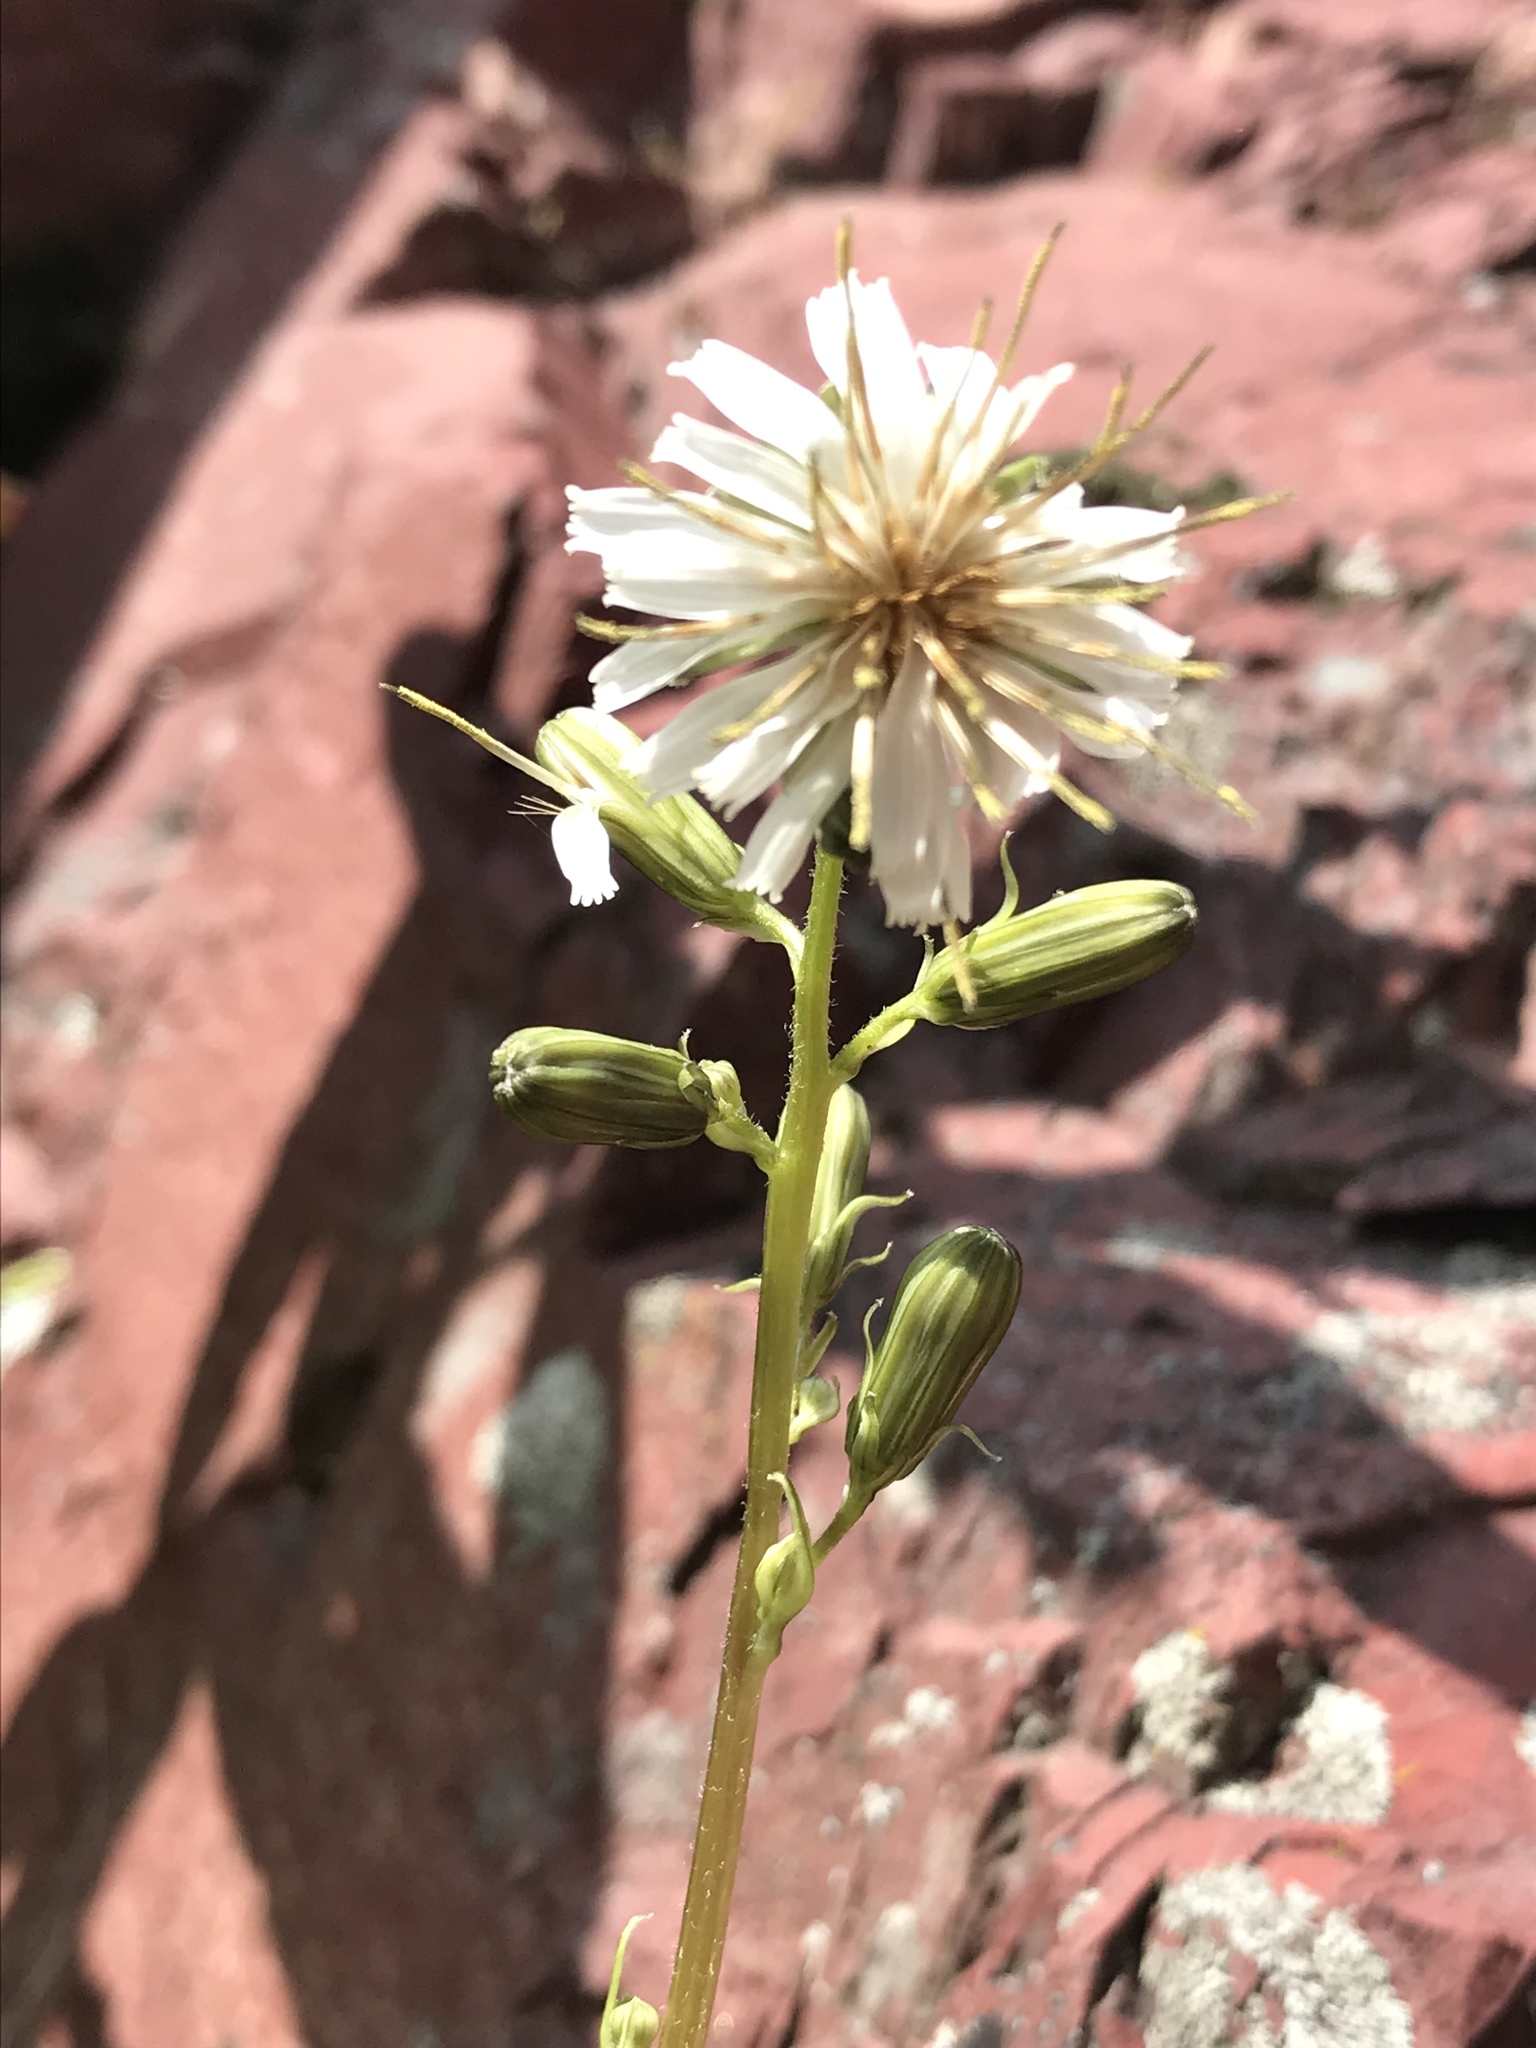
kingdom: Plantae
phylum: Tracheophyta
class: Magnoliopsida
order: Asterales
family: Asteraceae
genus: Hieracium
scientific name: Hieracium albiflorum
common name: White hawkweed
